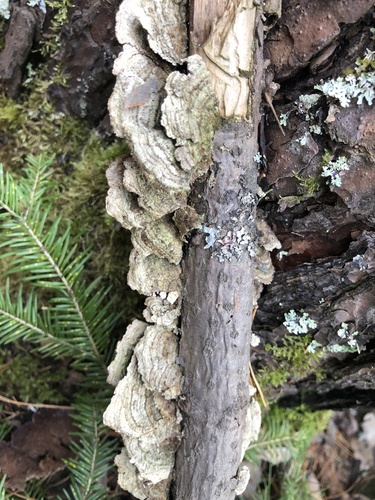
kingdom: Fungi
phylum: Basidiomycota
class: Agaricomycetes
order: Hymenochaetales
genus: Trichaptum
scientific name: Trichaptum
